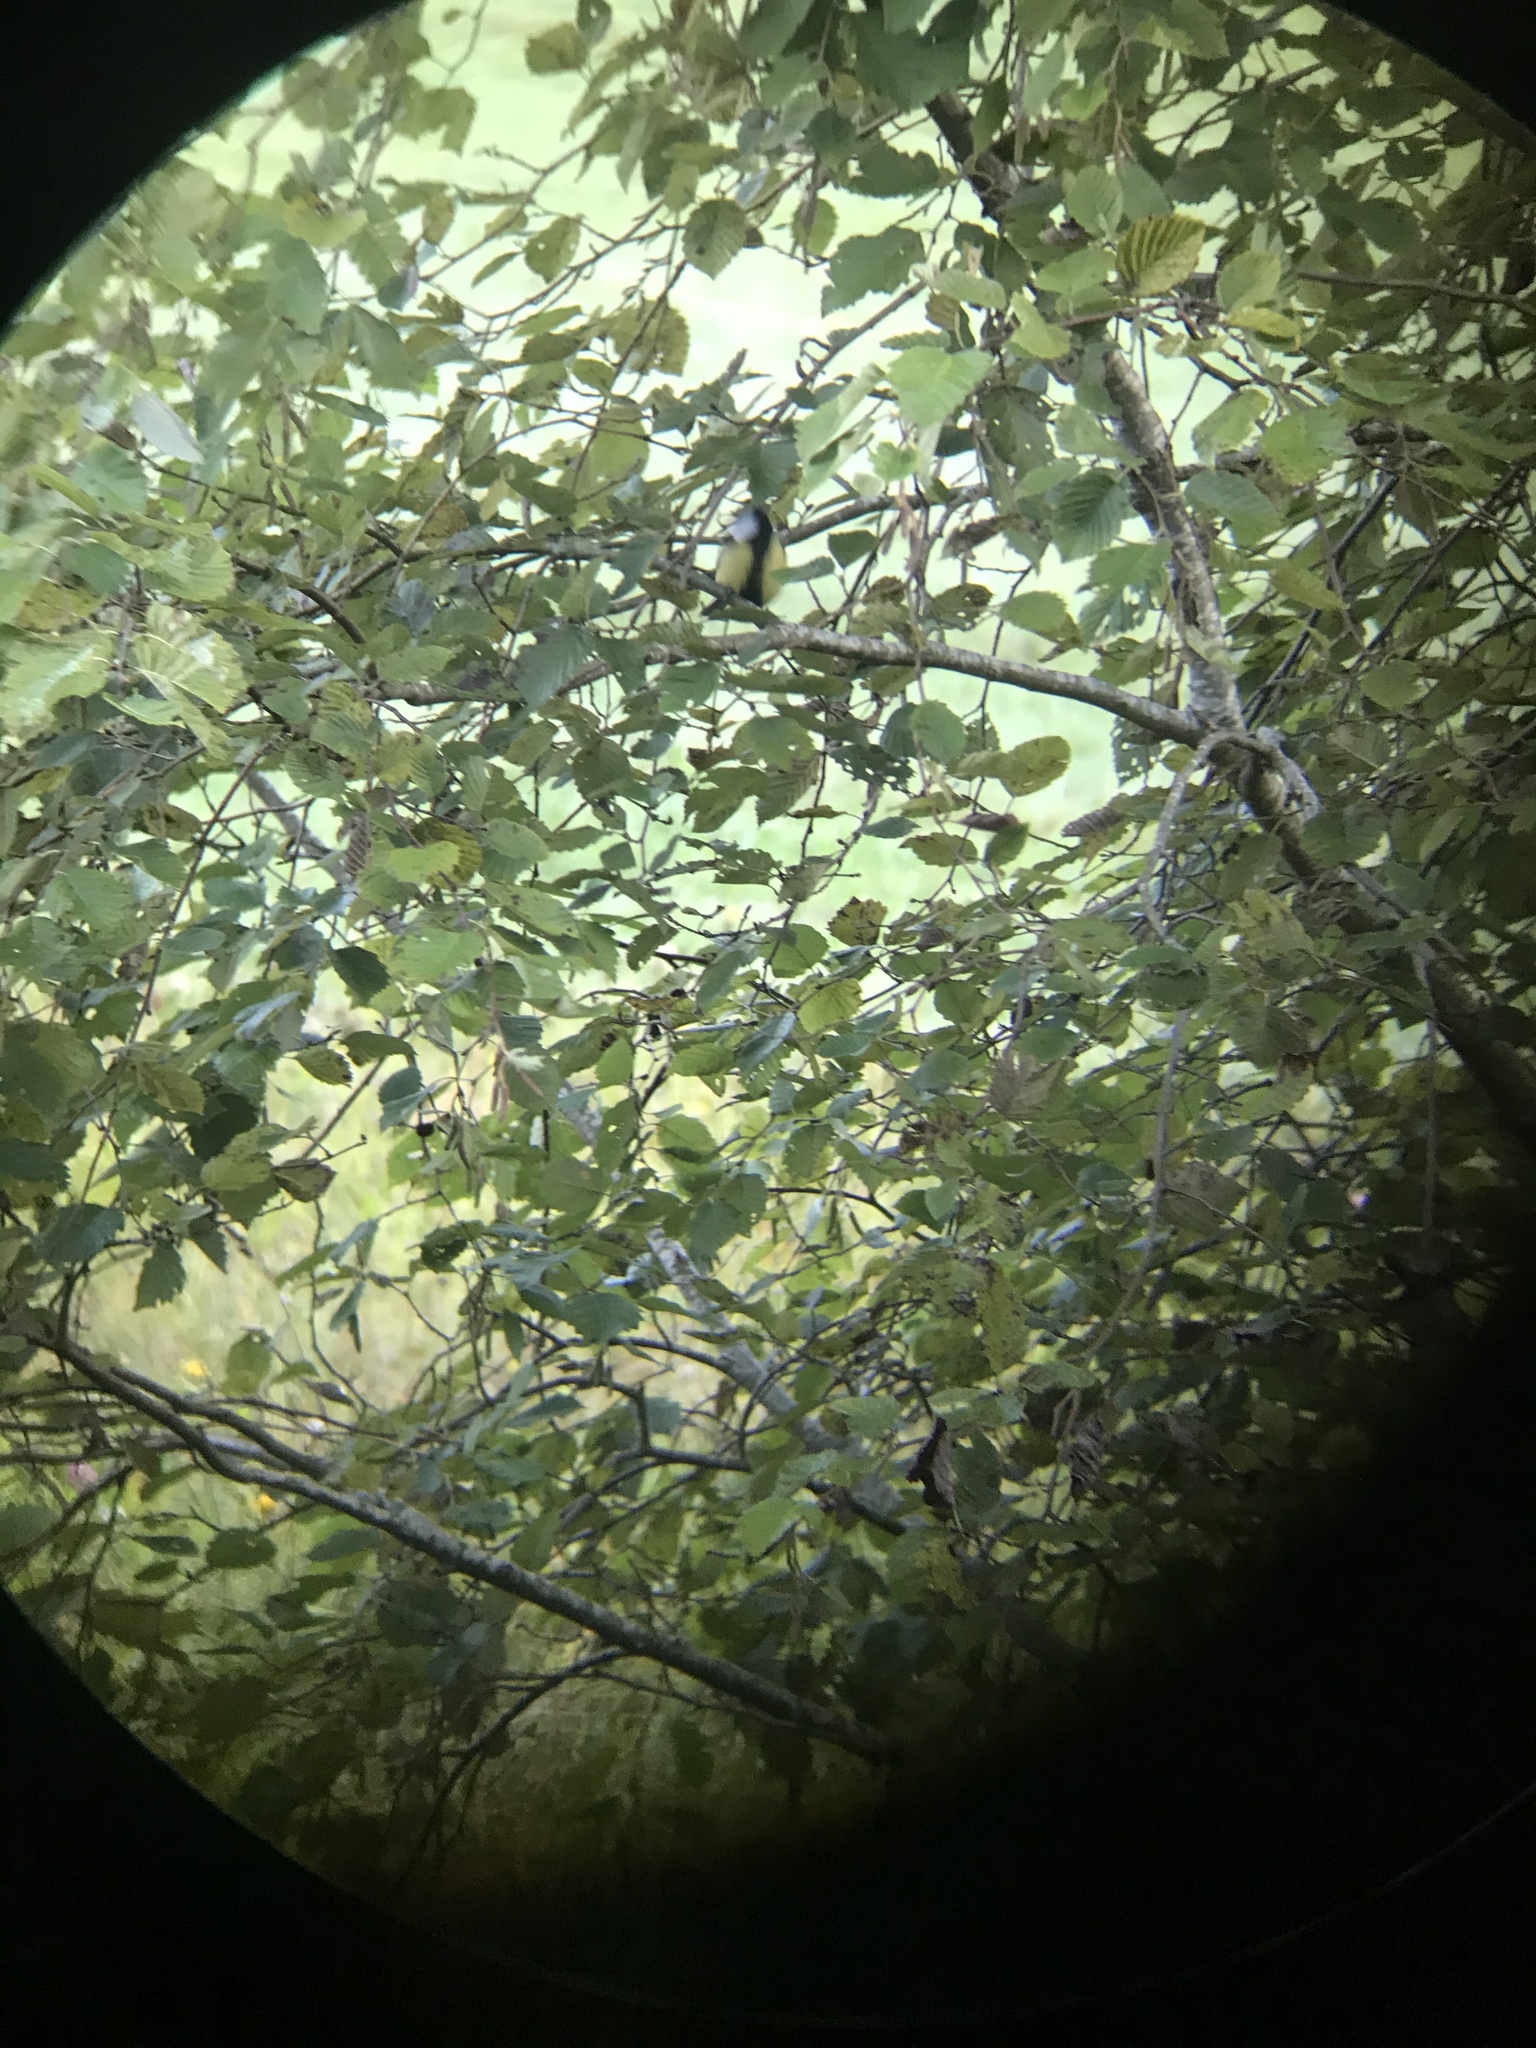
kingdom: Animalia
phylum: Chordata
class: Aves
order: Passeriformes
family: Paridae
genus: Parus
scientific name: Parus major
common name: Great tit
